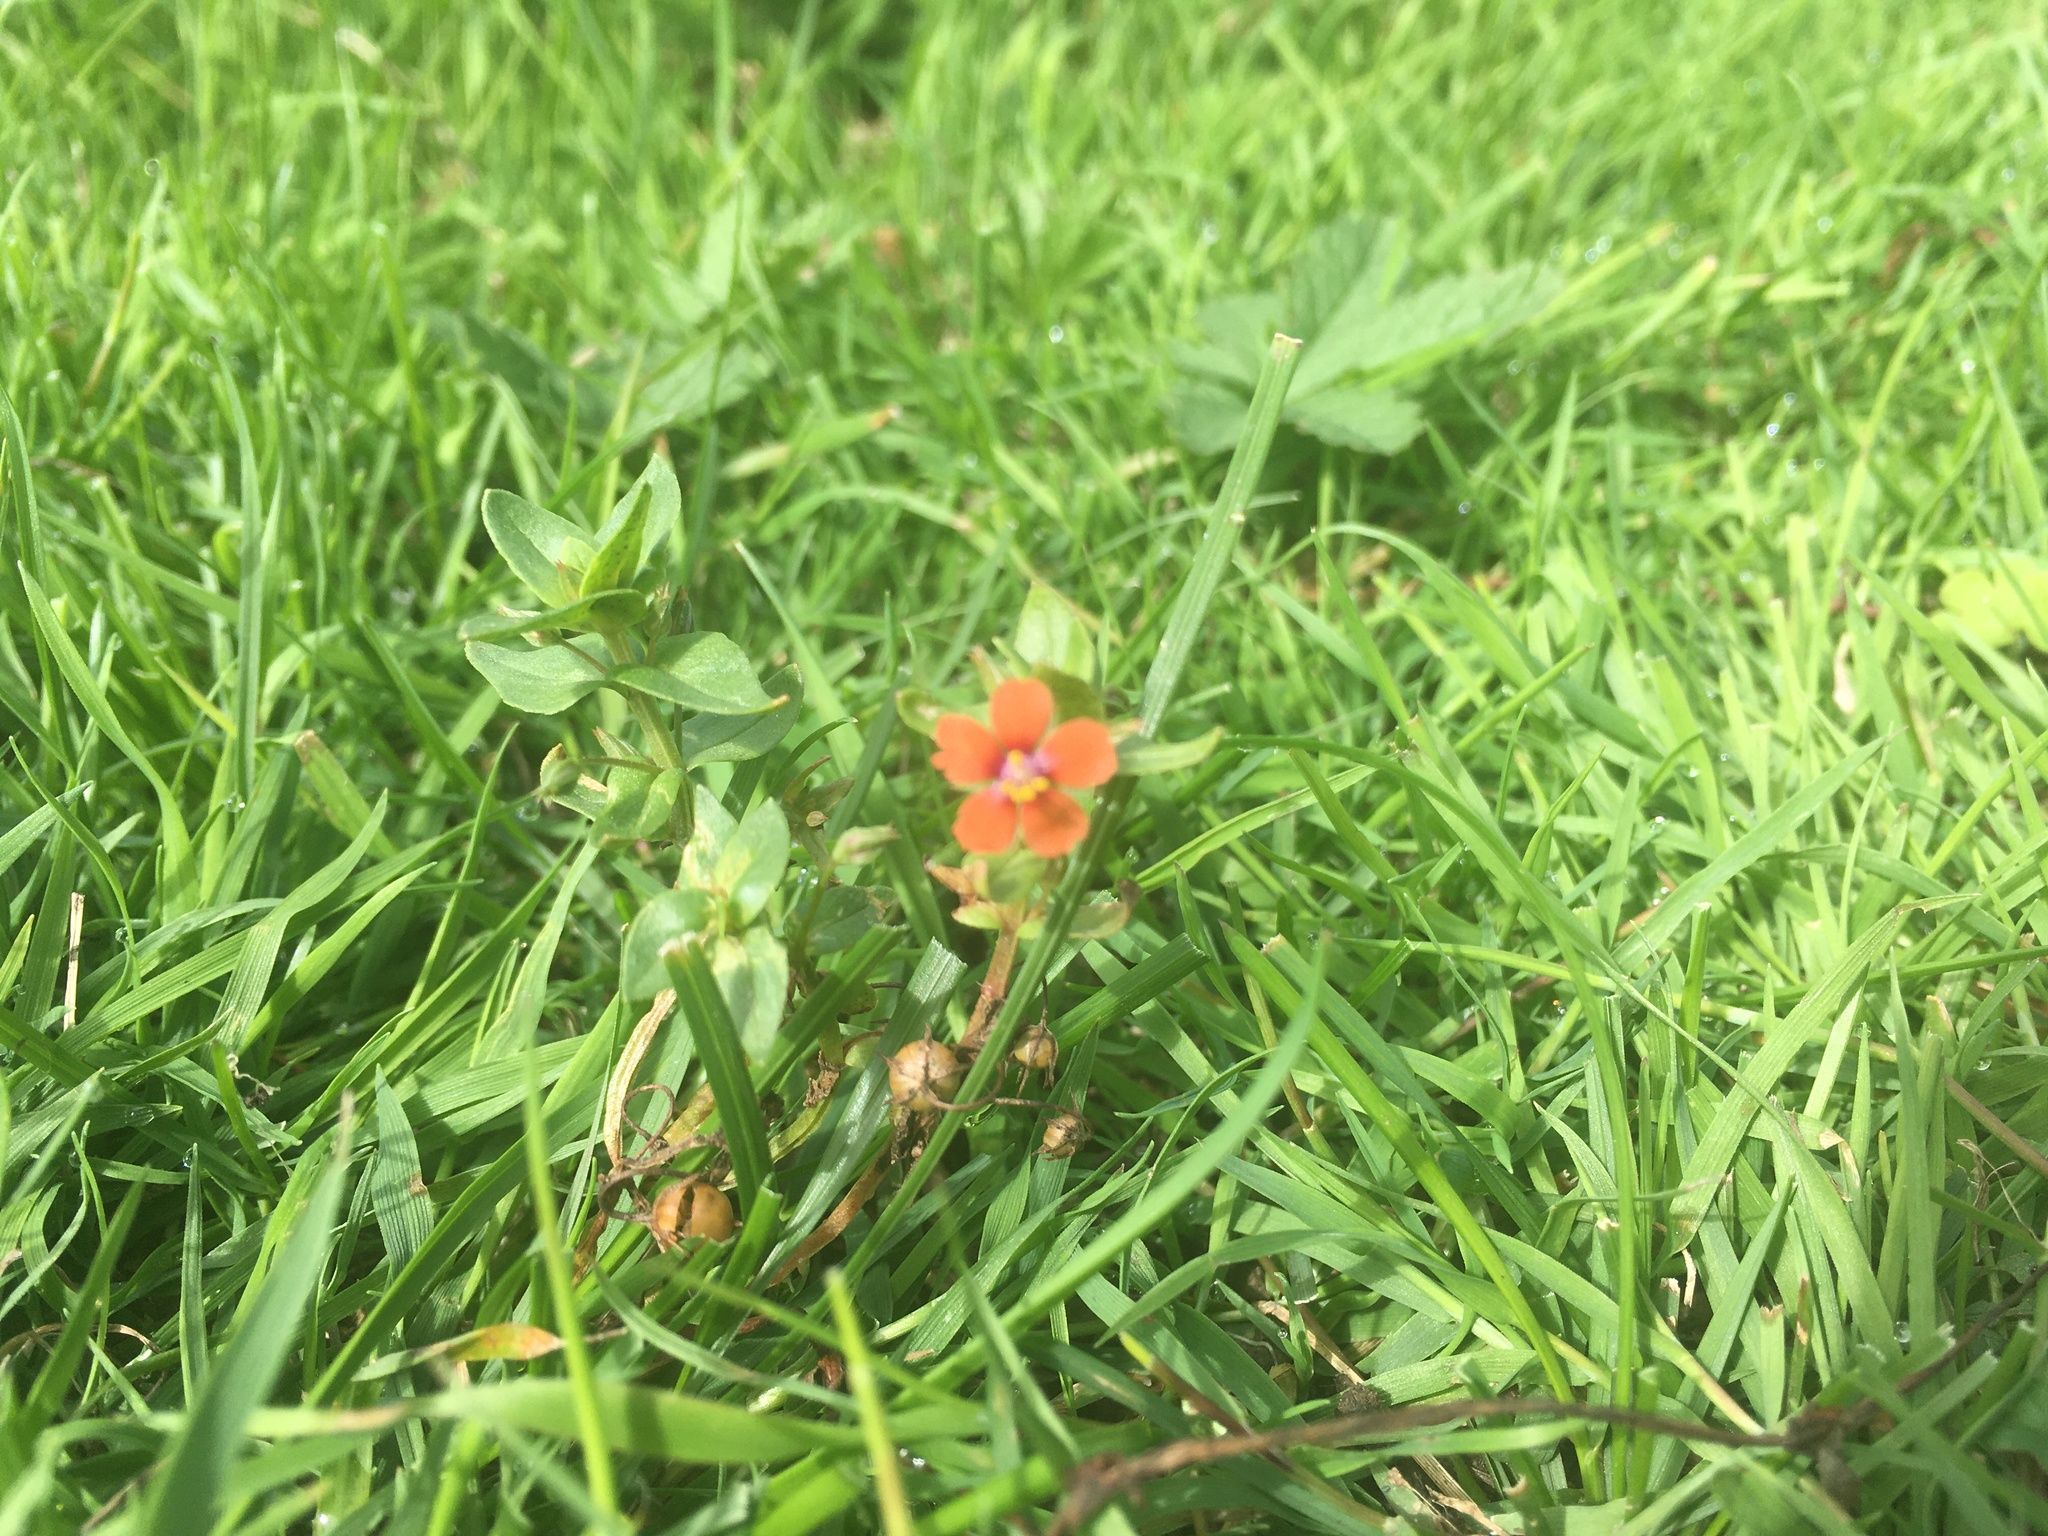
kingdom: Plantae
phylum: Tracheophyta
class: Magnoliopsida
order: Ericales
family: Primulaceae
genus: Lysimachia
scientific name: Lysimachia arvensis
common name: Scarlet pimpernel
